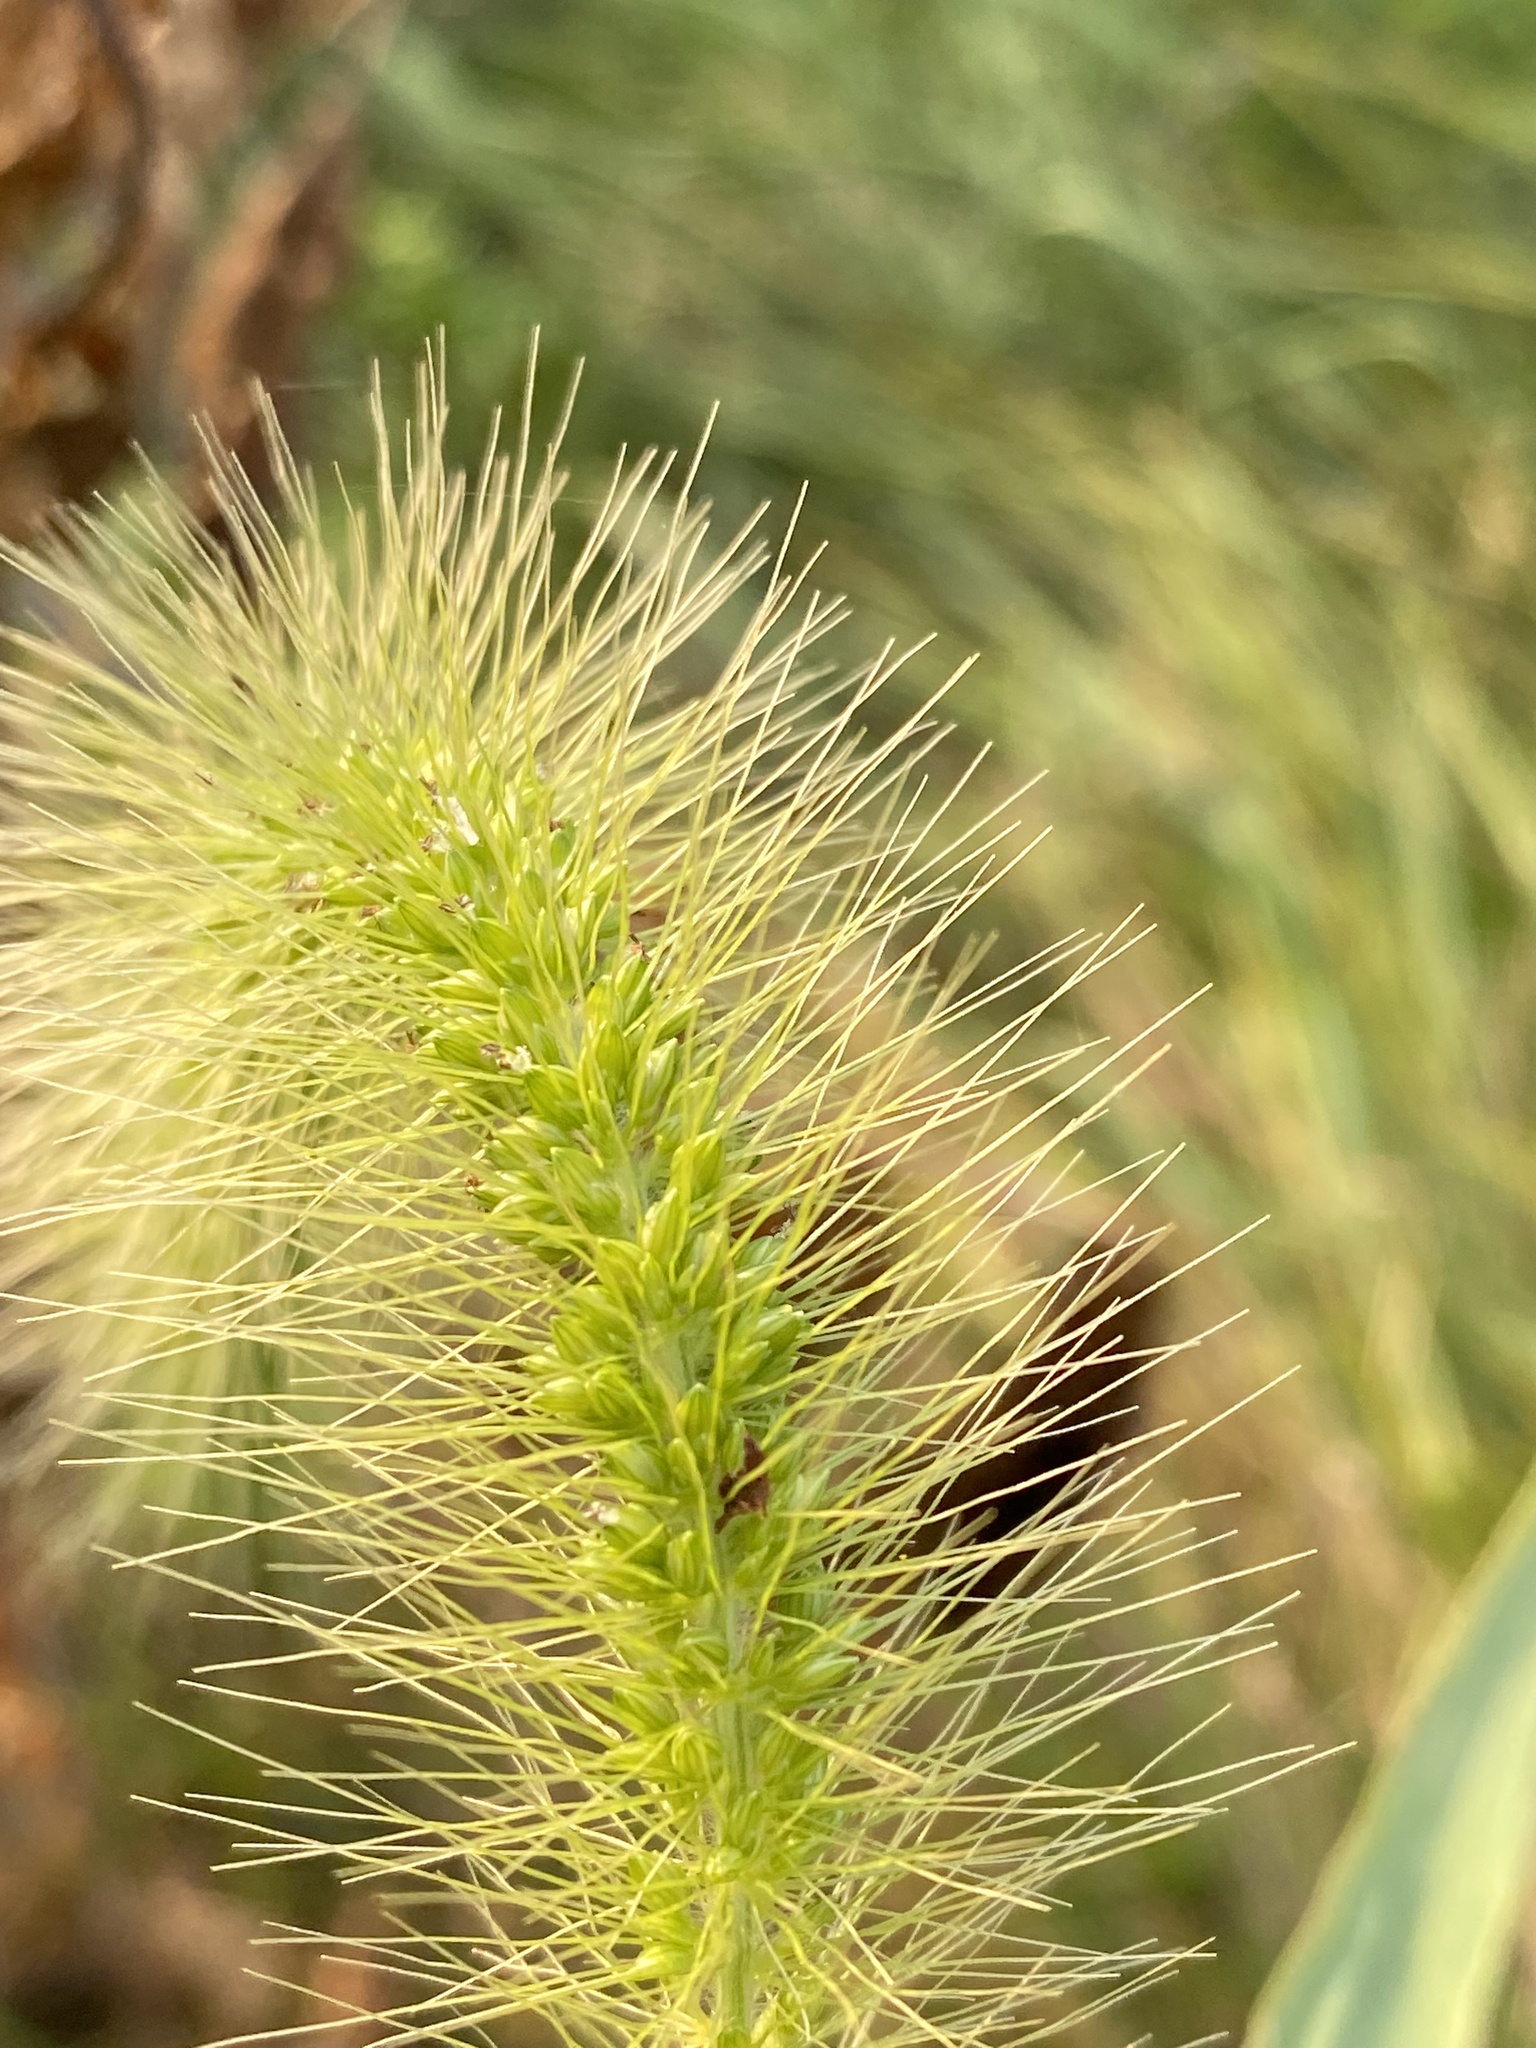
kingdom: Plantae
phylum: Tracheophyta
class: Liliopsida
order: Poales
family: Poaceae
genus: Setaria
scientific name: Setaria faberi
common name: Nodding bristle-grass
